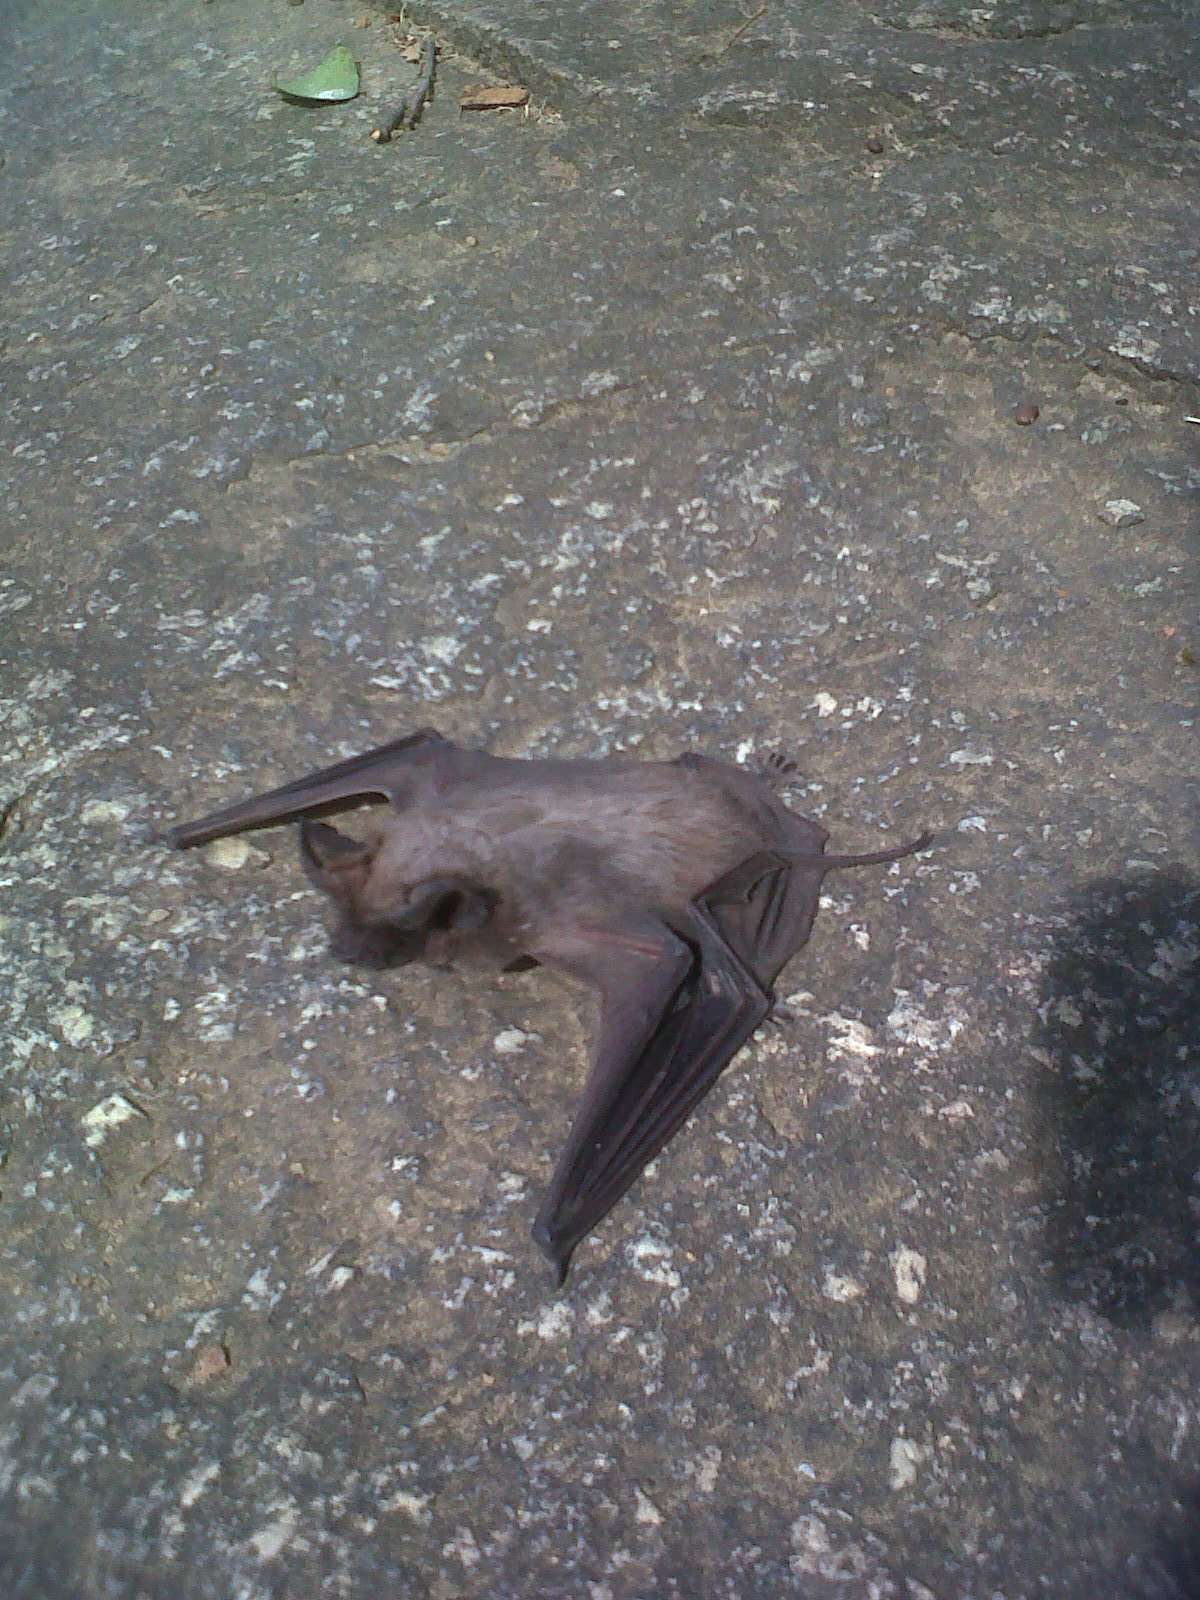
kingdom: Animalia
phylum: Chordata
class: Mammalia
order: Chiroptera
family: Molossidae
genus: Tadarida
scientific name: Tadarida aegyptiaca
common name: Egyptian free-tailed bat
